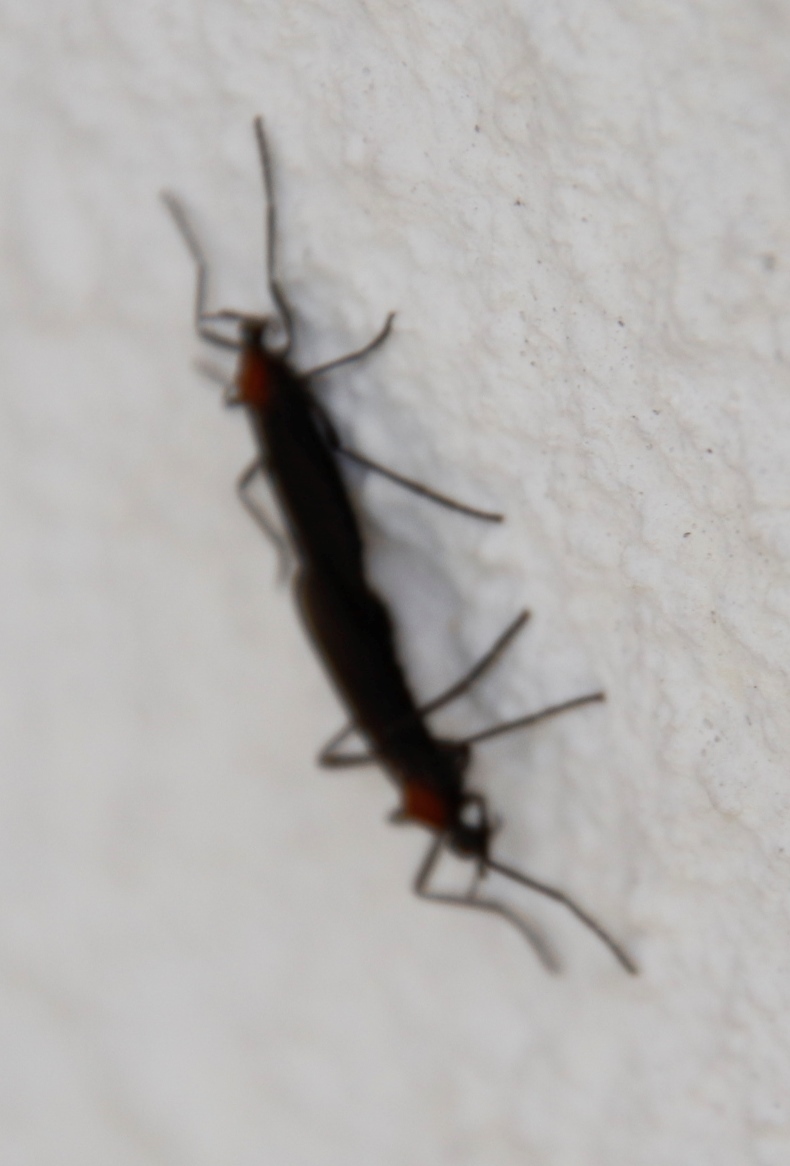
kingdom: Animalia
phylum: Arthropoda
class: Insecta
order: Diptera
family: Bibionidae
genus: Plecia
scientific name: Plecia ruficollis
